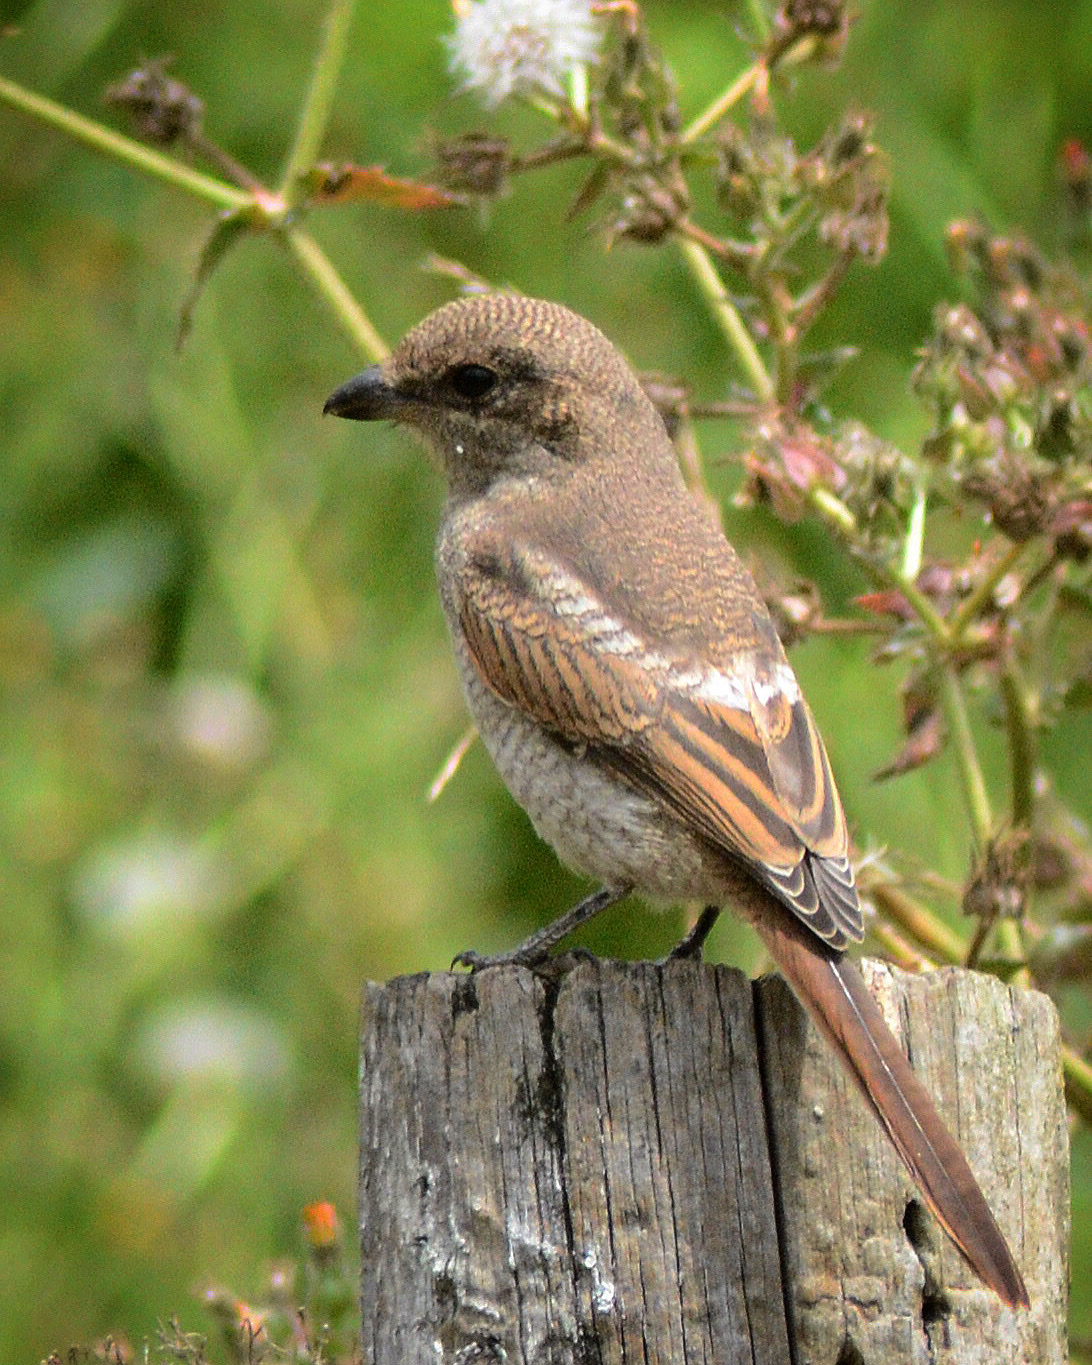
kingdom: Animalia
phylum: Chordata
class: Aves
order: Passeriformes
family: Laniidae
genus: Lanius
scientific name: Lanius collaris
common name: Southern fiscal
